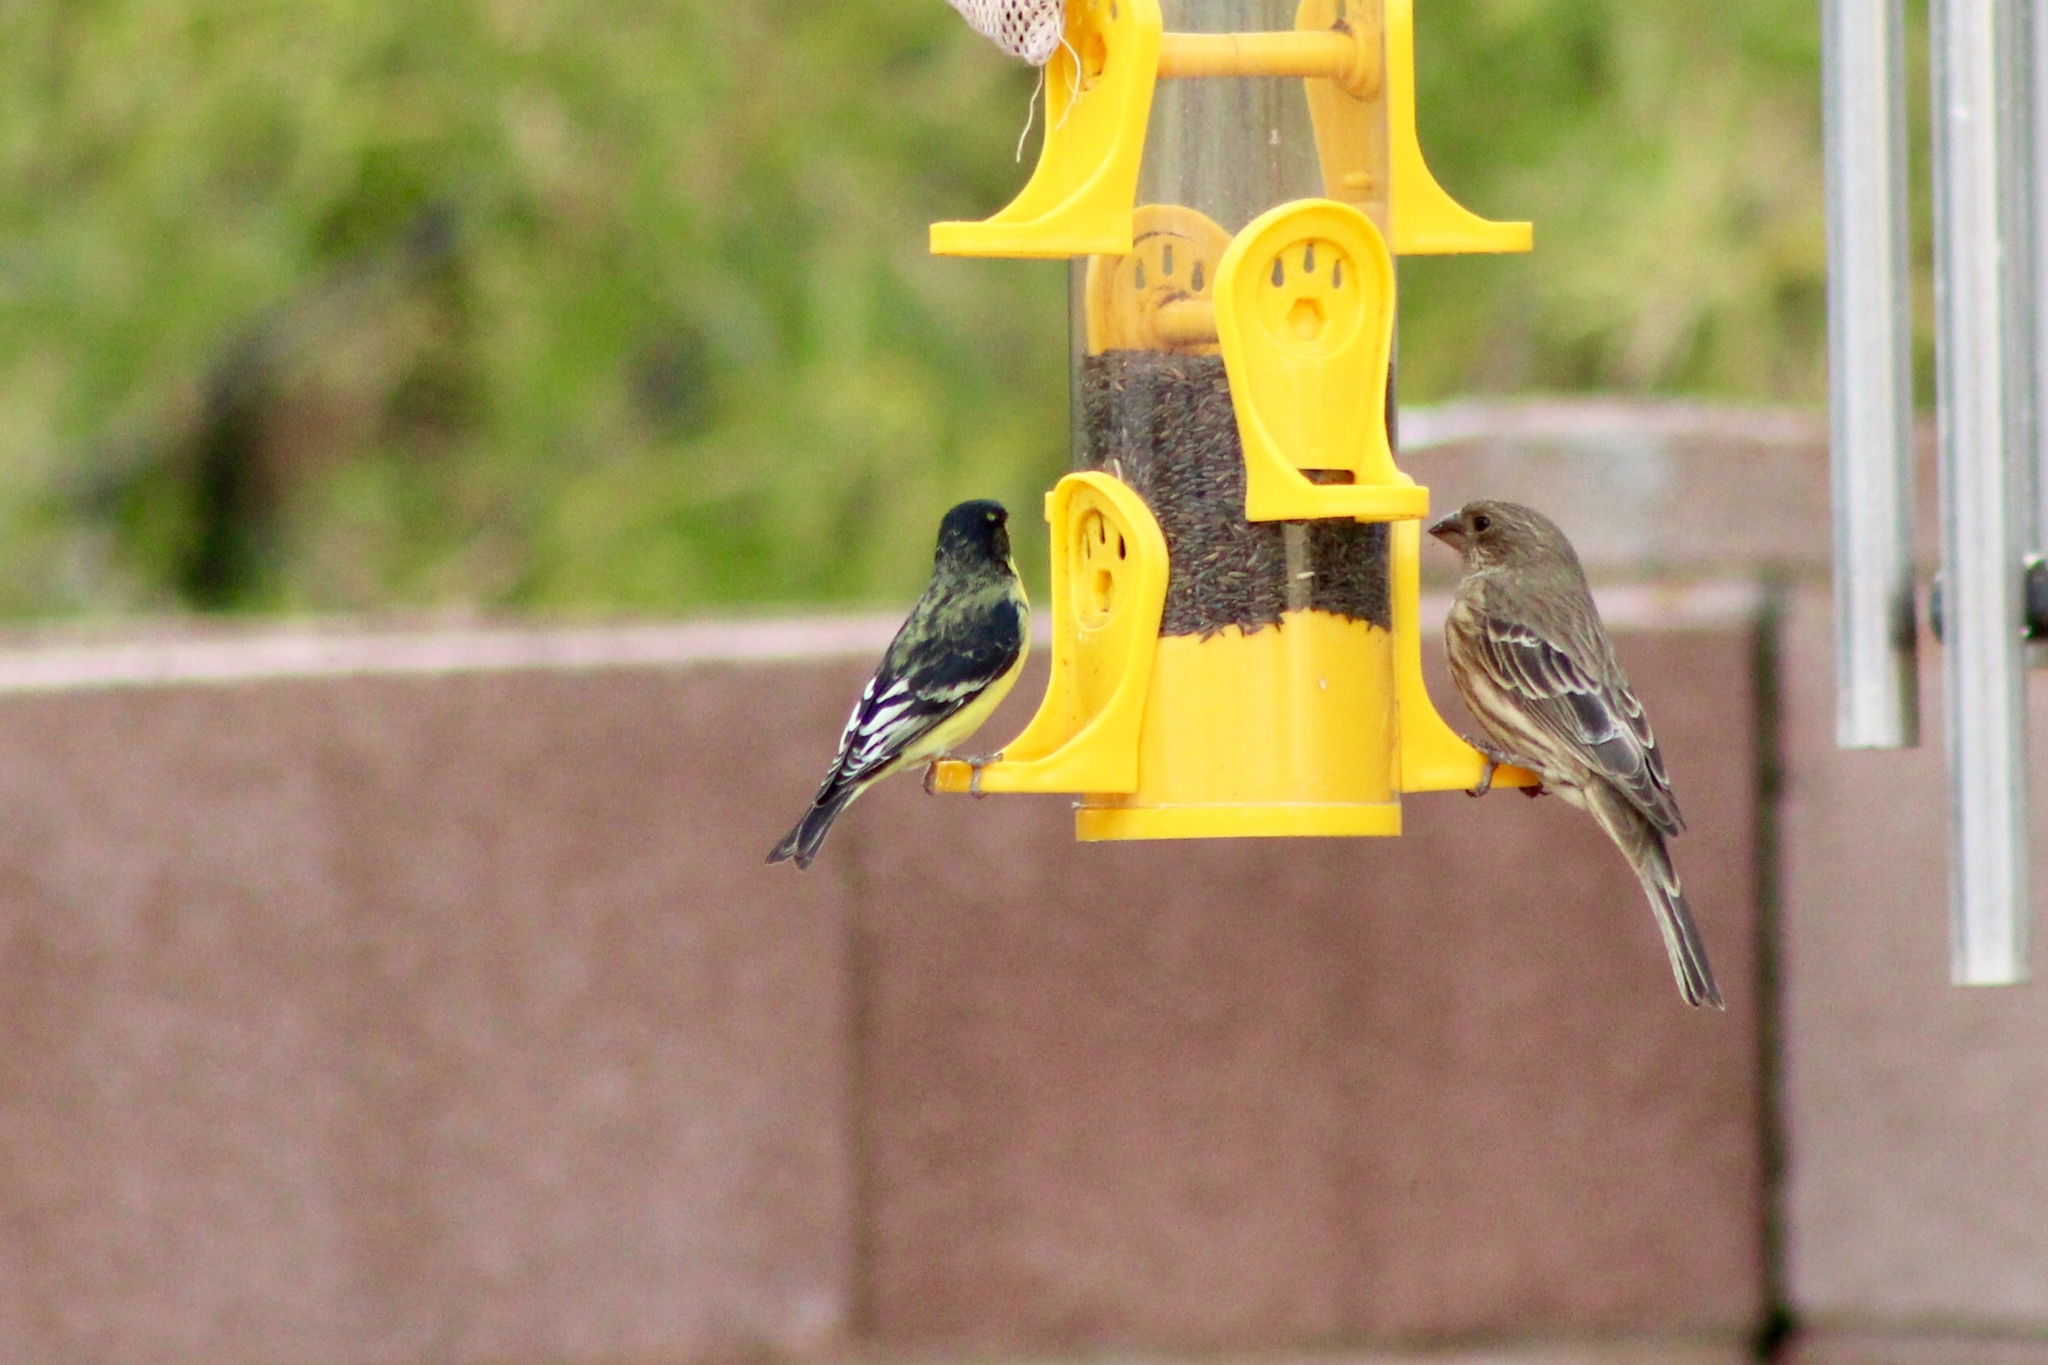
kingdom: Animalia
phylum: Chordata
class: Aves
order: Passeriformes
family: Fringillidae
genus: Spinus
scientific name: Spinus psaltria
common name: Lesser goldfinch
